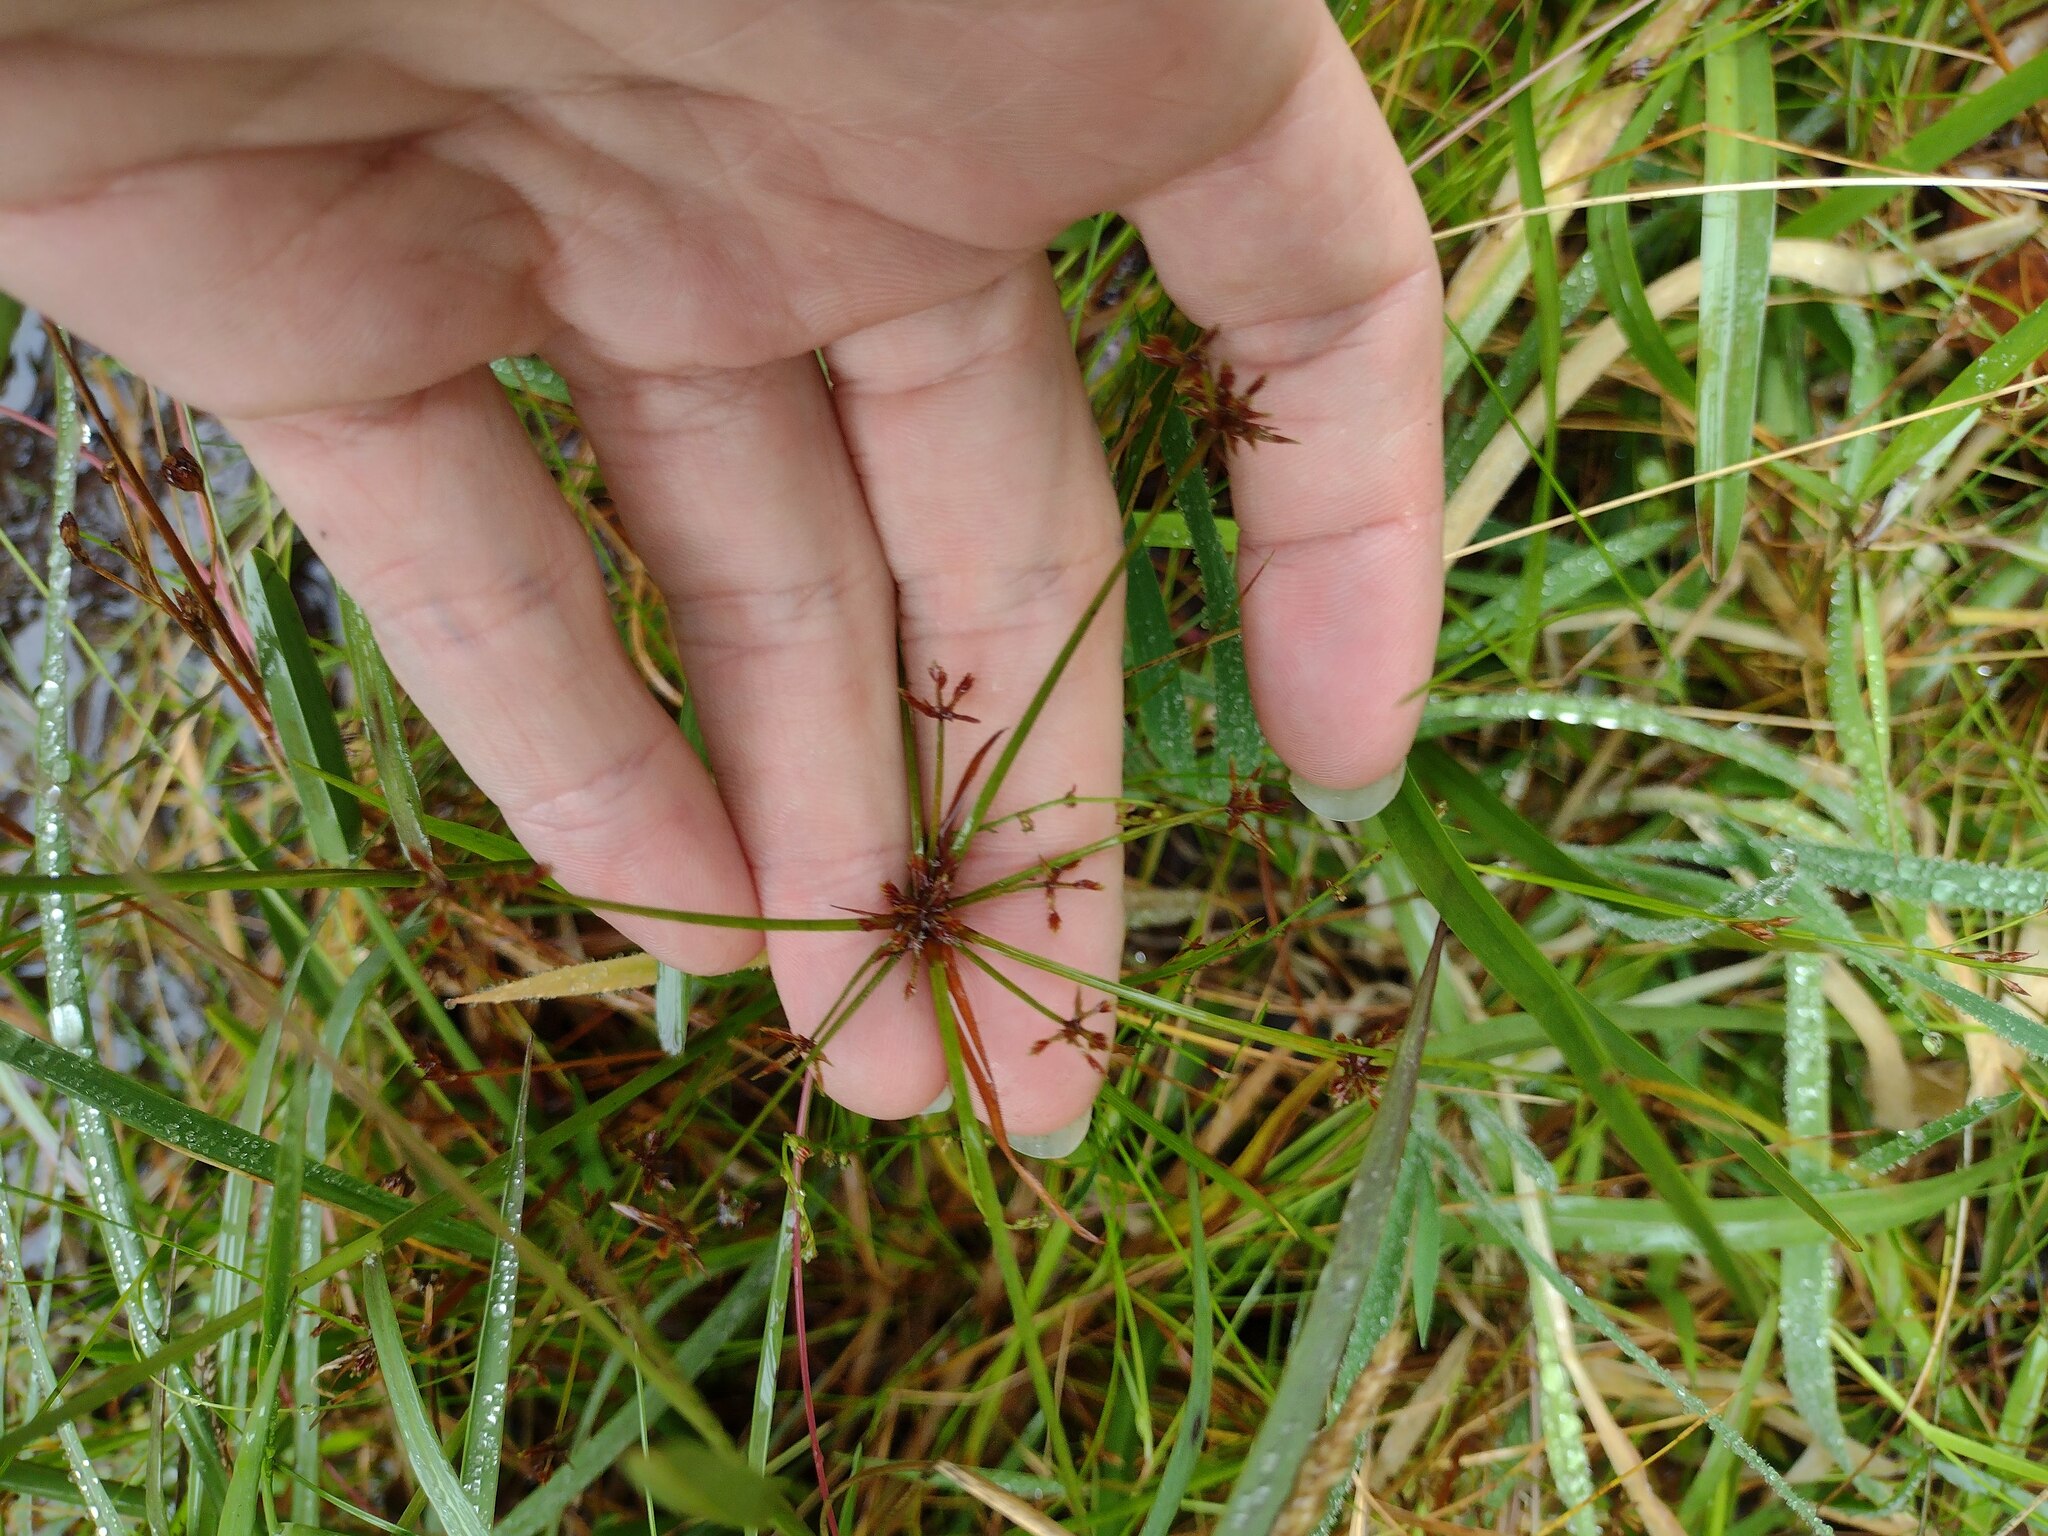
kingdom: Plantae
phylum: Tracheophyta
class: Liliopsida
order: Poales
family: Cyperaceae
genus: Cyperus
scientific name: Cyperus haspan
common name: Haspan flatsedge
